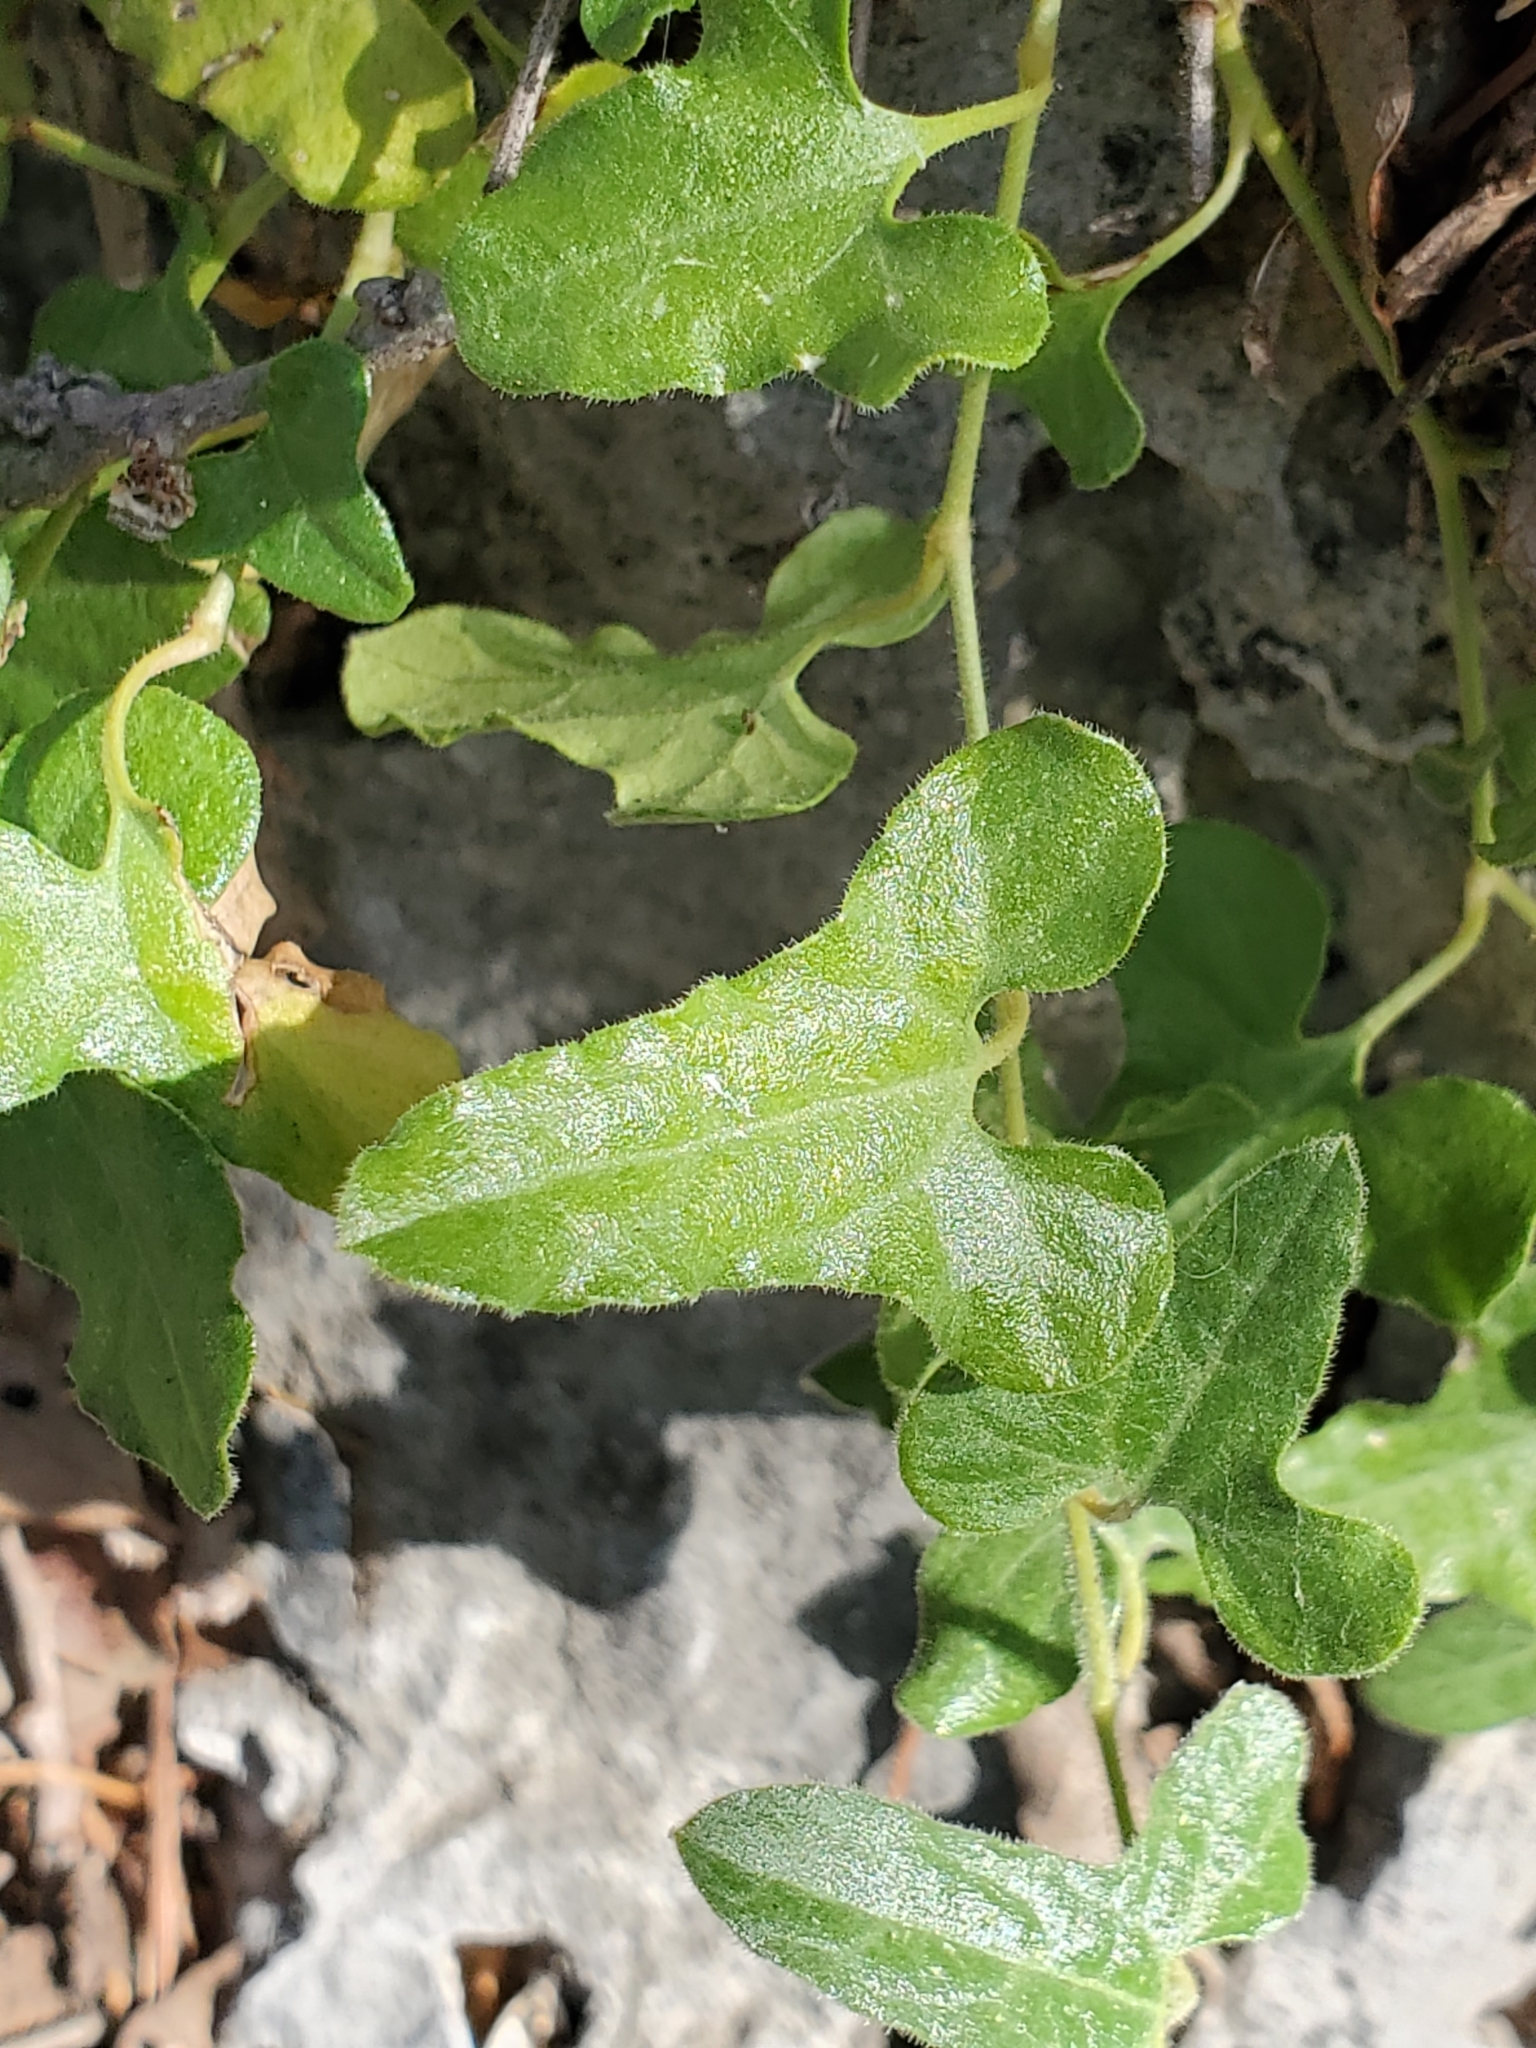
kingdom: Plantae
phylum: Tracheophyta
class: Magnoliopsida
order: Piperales
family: Aristolochiaceae
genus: Aristolochia
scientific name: Aristolochia coryi
